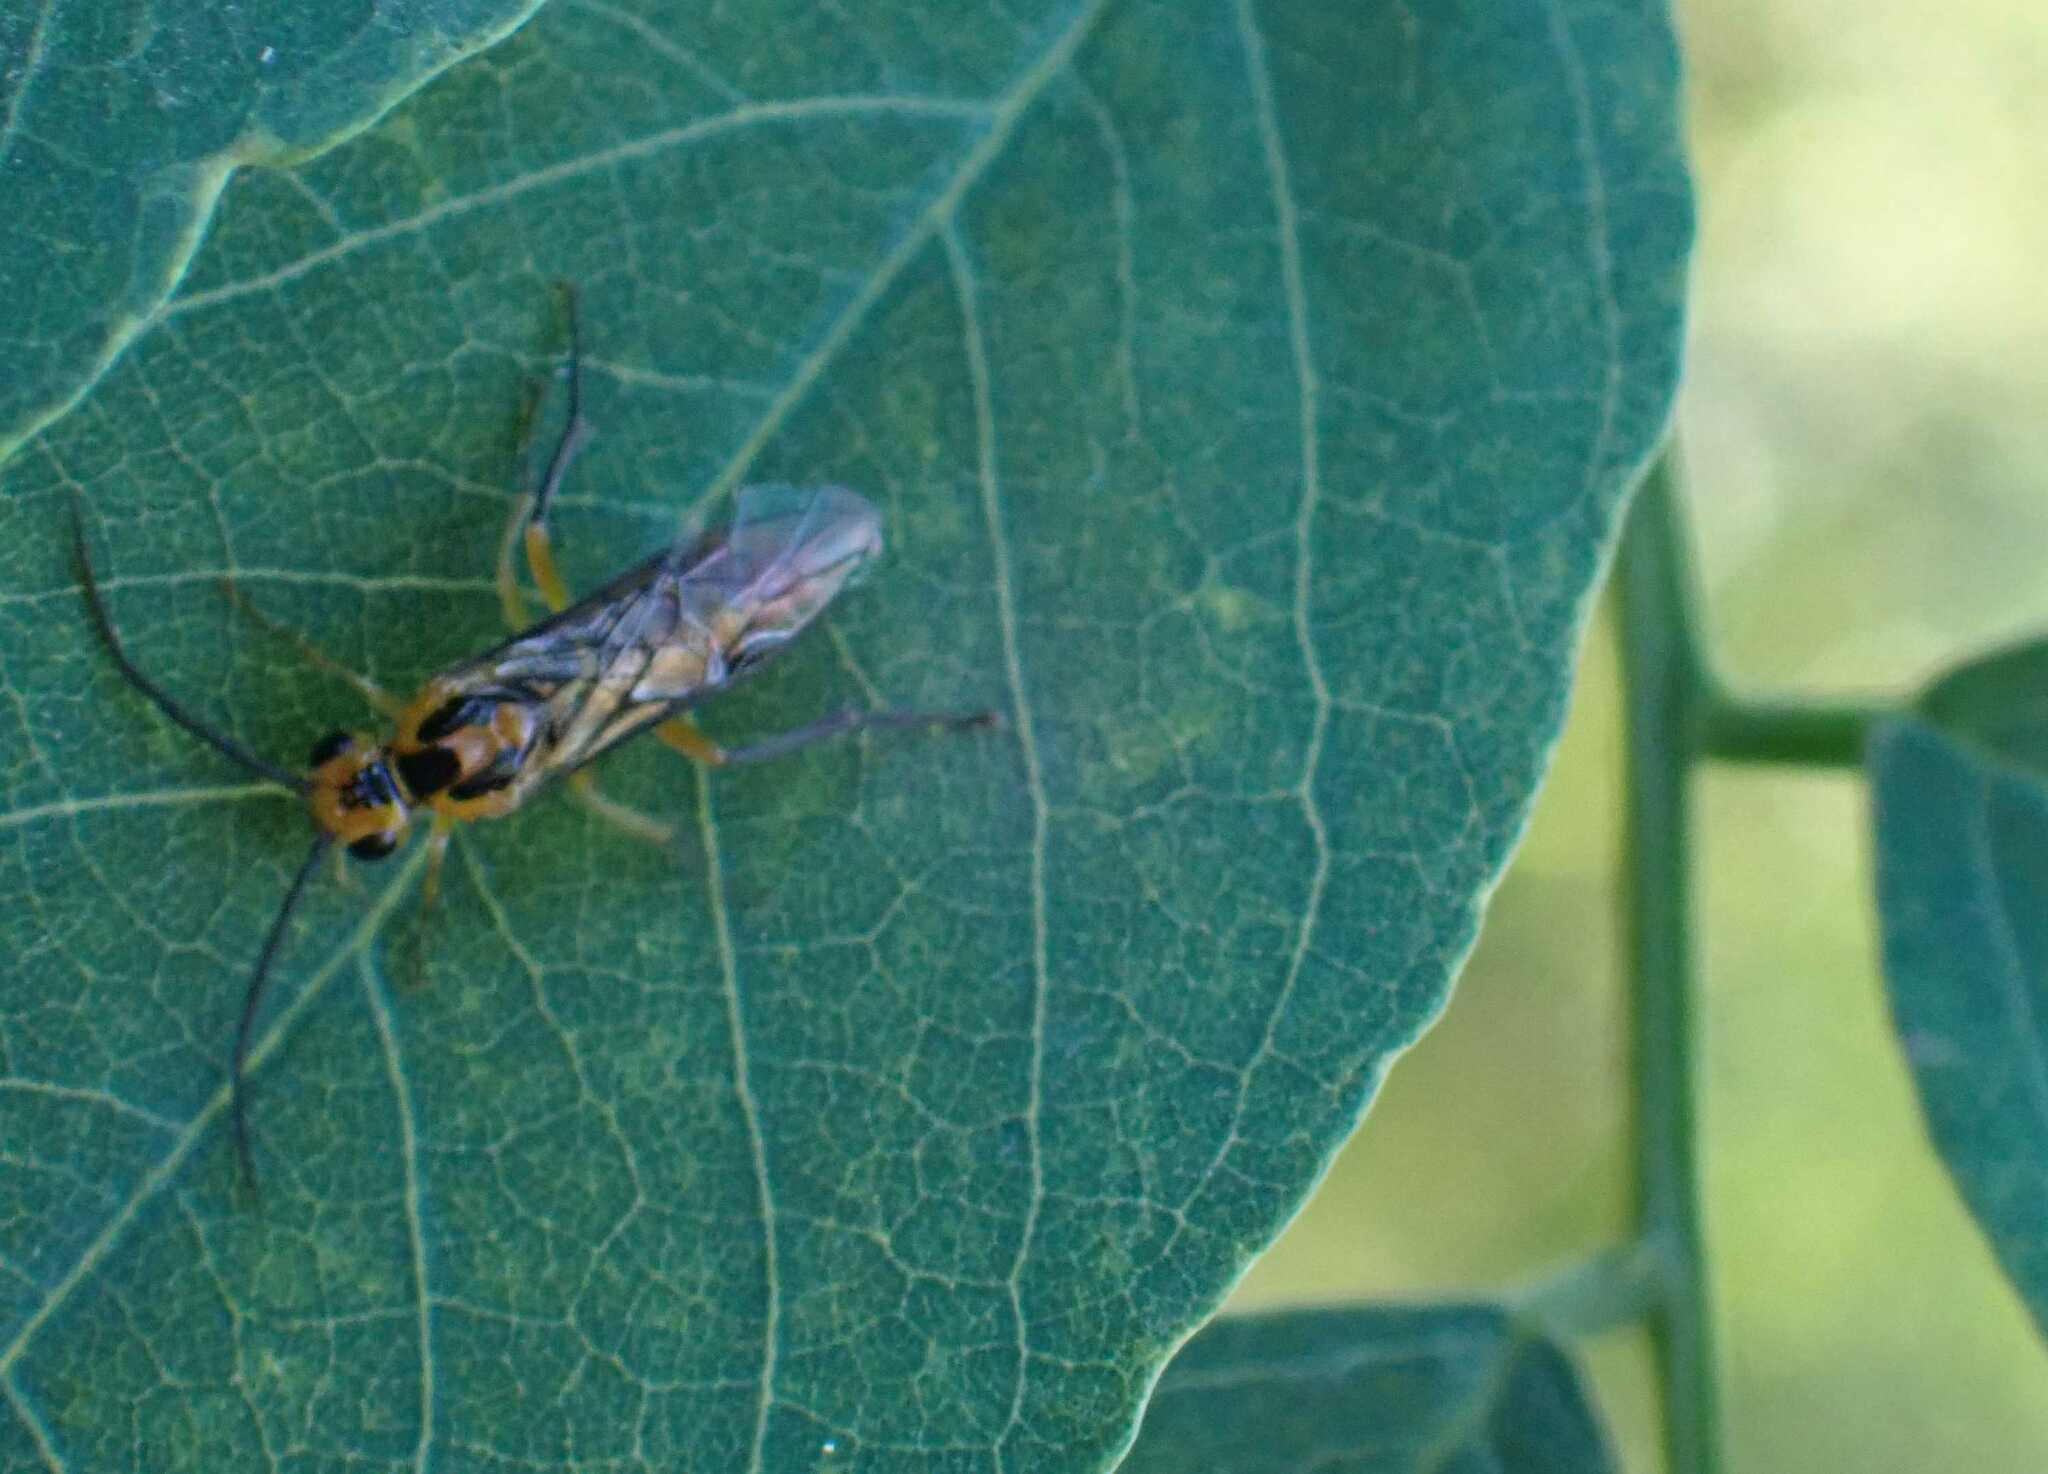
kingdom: Animalia
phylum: Arthropoda
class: Insecta
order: Hymenoptera
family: Tenthredinidae
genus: Euura
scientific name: Euura tibialis
